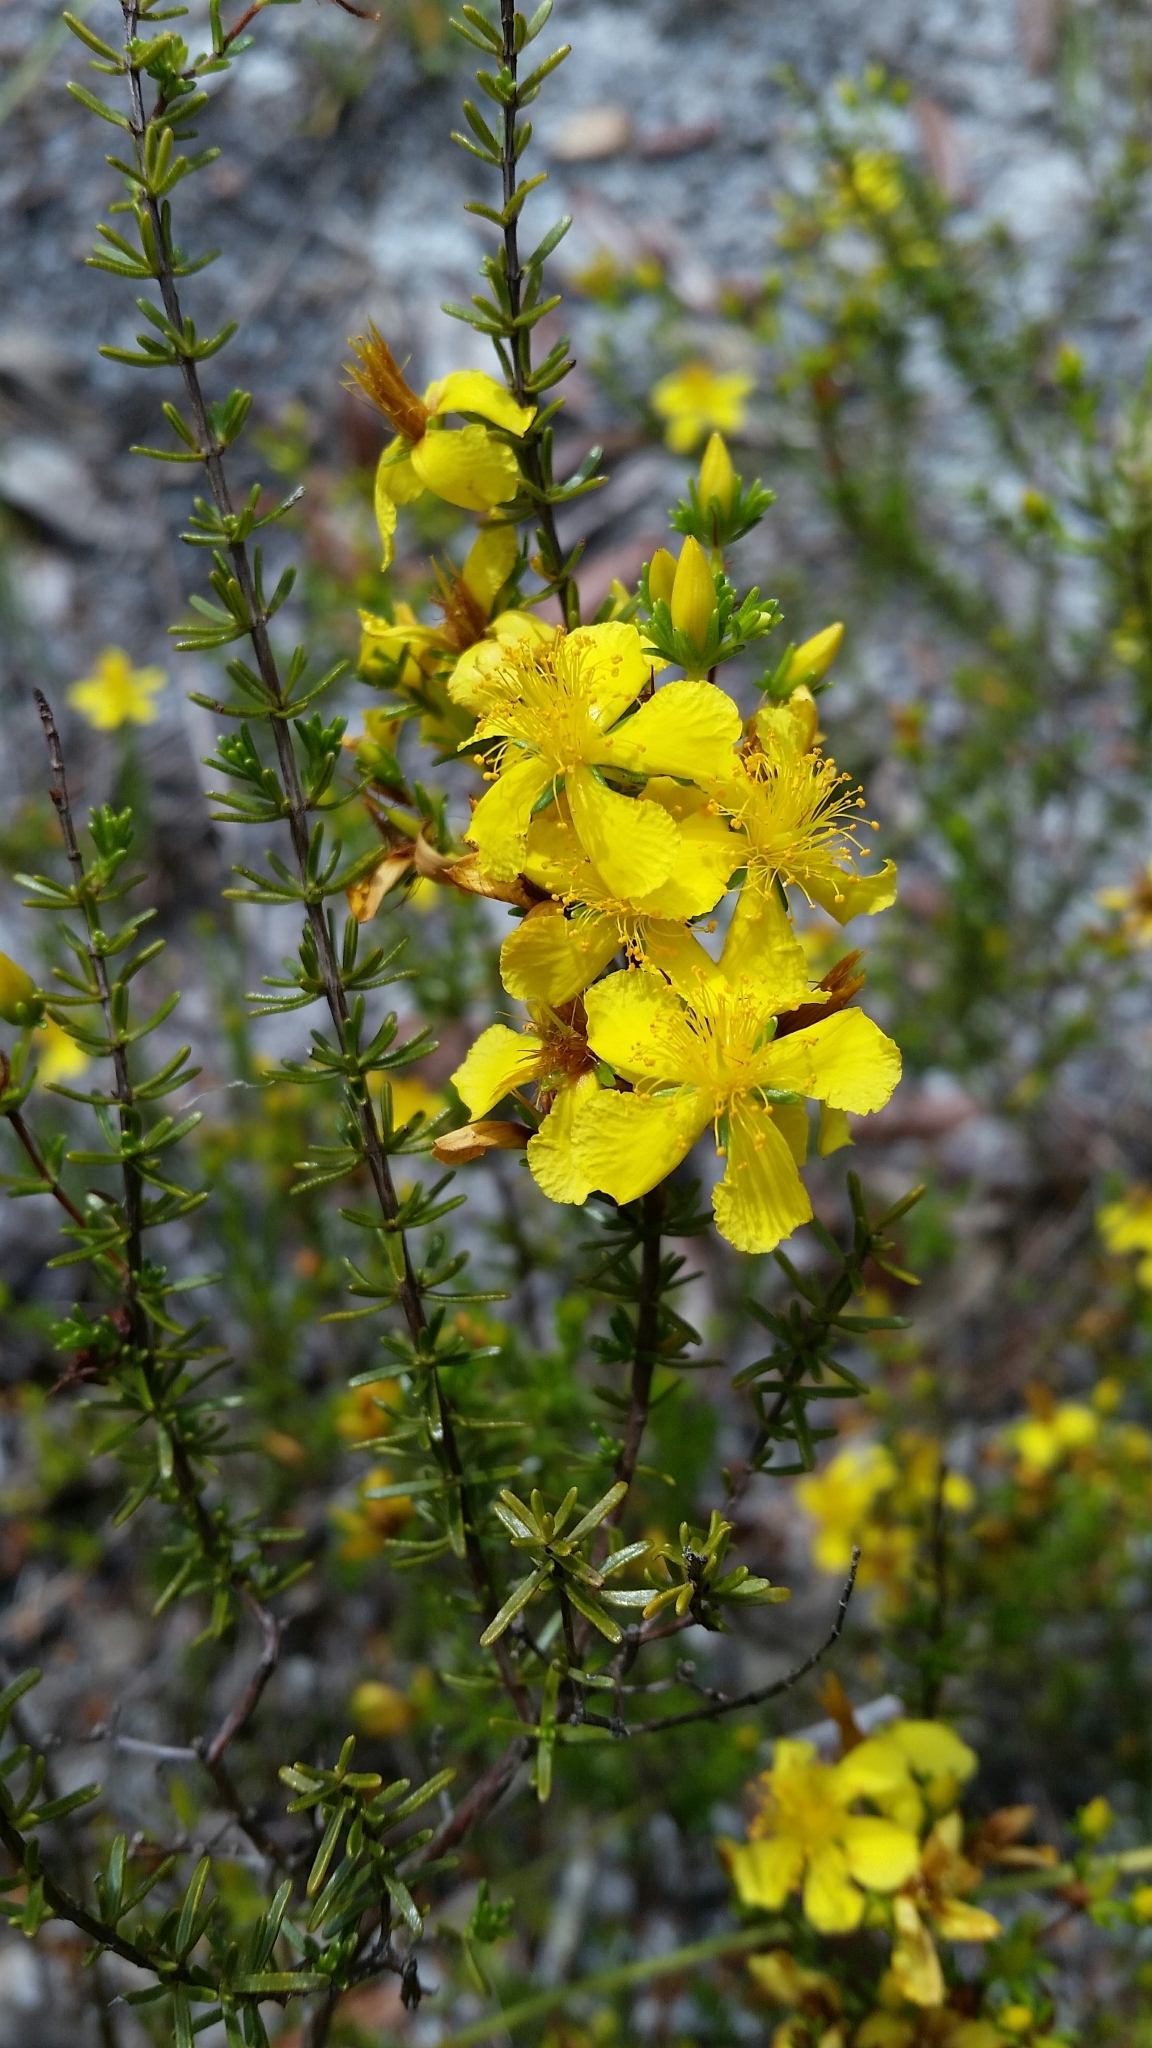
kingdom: Plantae
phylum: Tracheophyta
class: Magnoliopsida
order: Malpighiales
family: Hypericaceae
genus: Hypericum
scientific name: Hypericum tenuifolium
